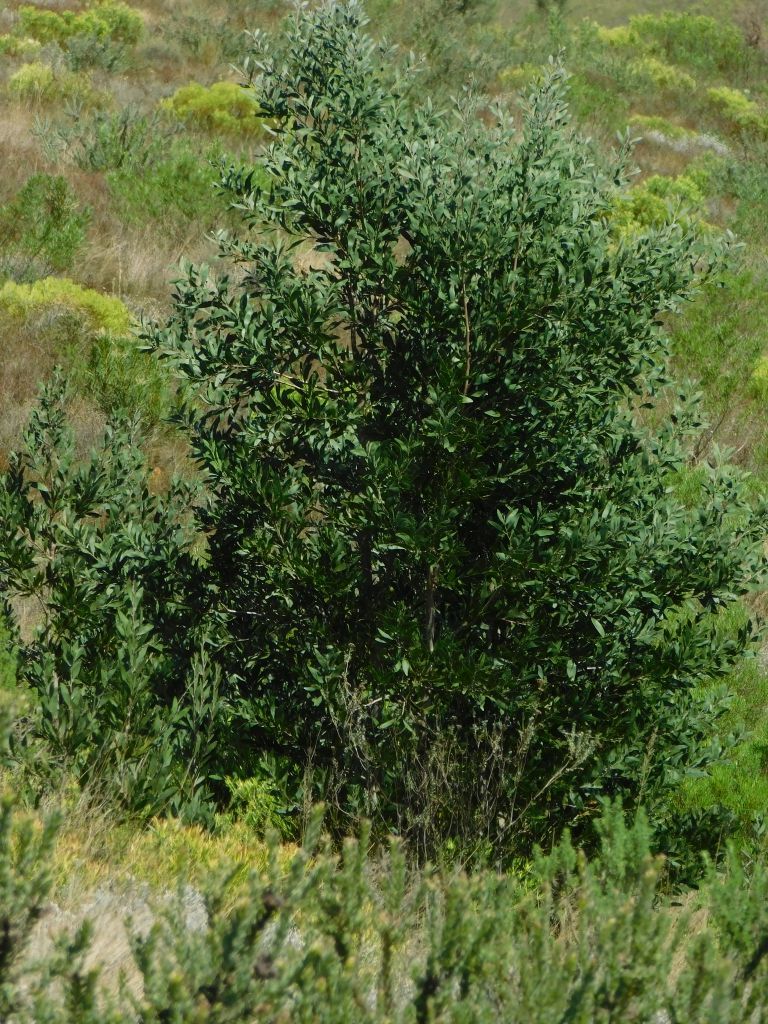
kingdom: Plantae
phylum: Tracheophyta
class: Magnoliopsida
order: Fabales
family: Fabaceae
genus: Acacia
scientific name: Acacia melanoxylon
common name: Blackwood
